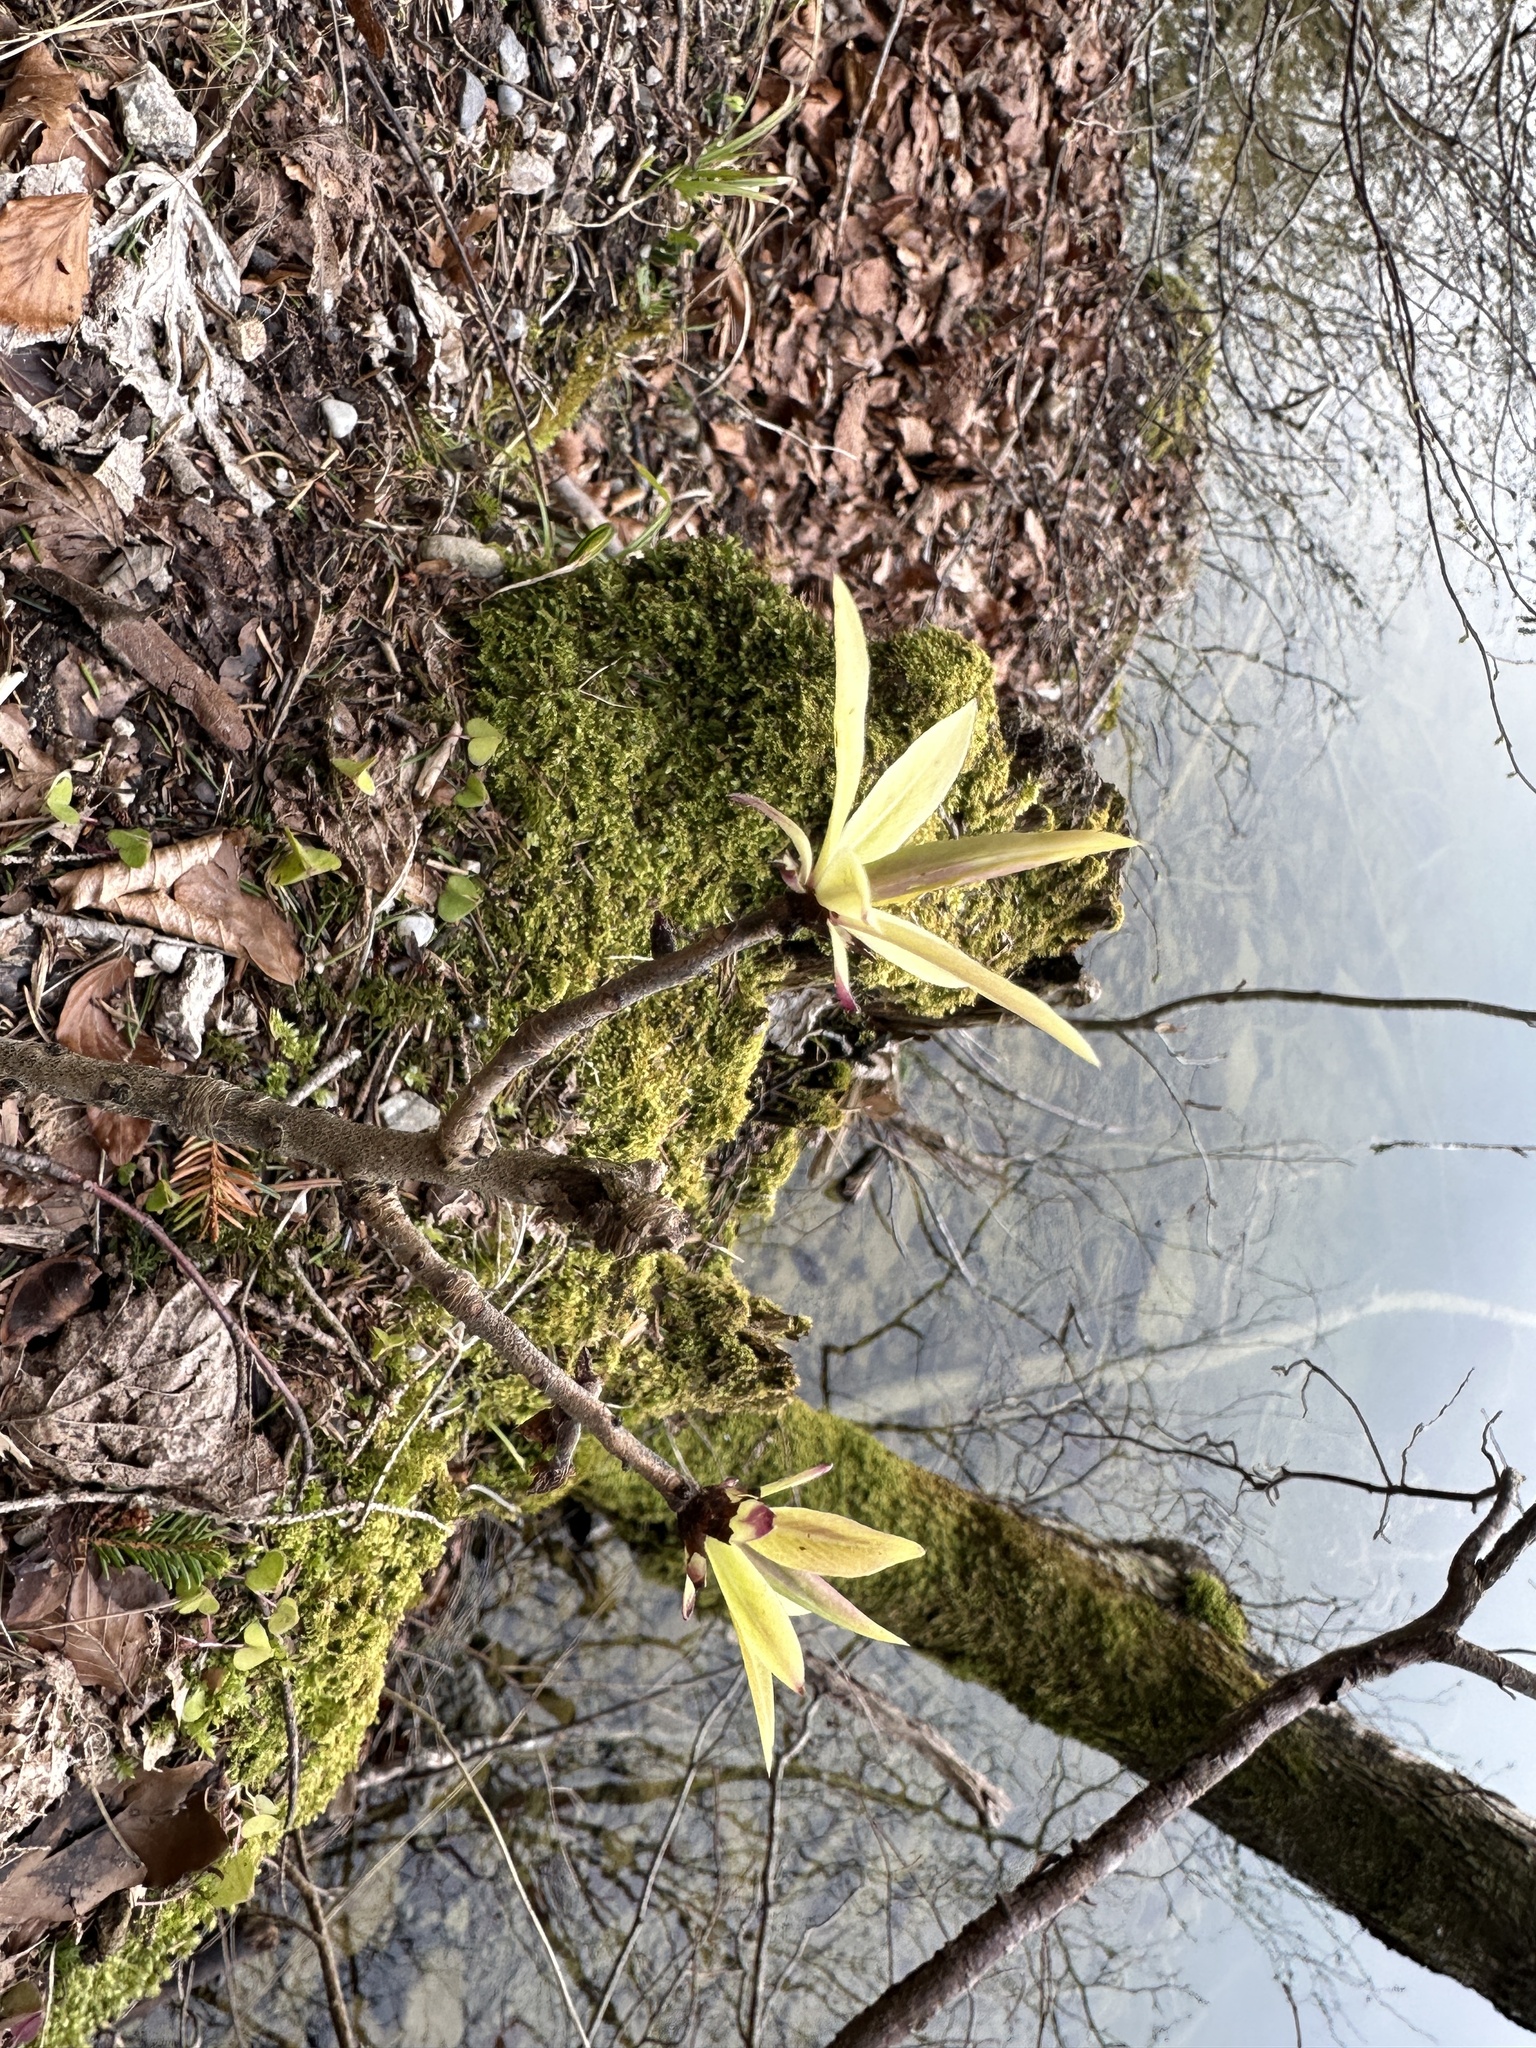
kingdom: Plantae
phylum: Tracheophyta
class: Magnoliopsida
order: Malvales
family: Thymelaeaceae
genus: Daphne
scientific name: Daphne mezereum
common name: Mezereon
